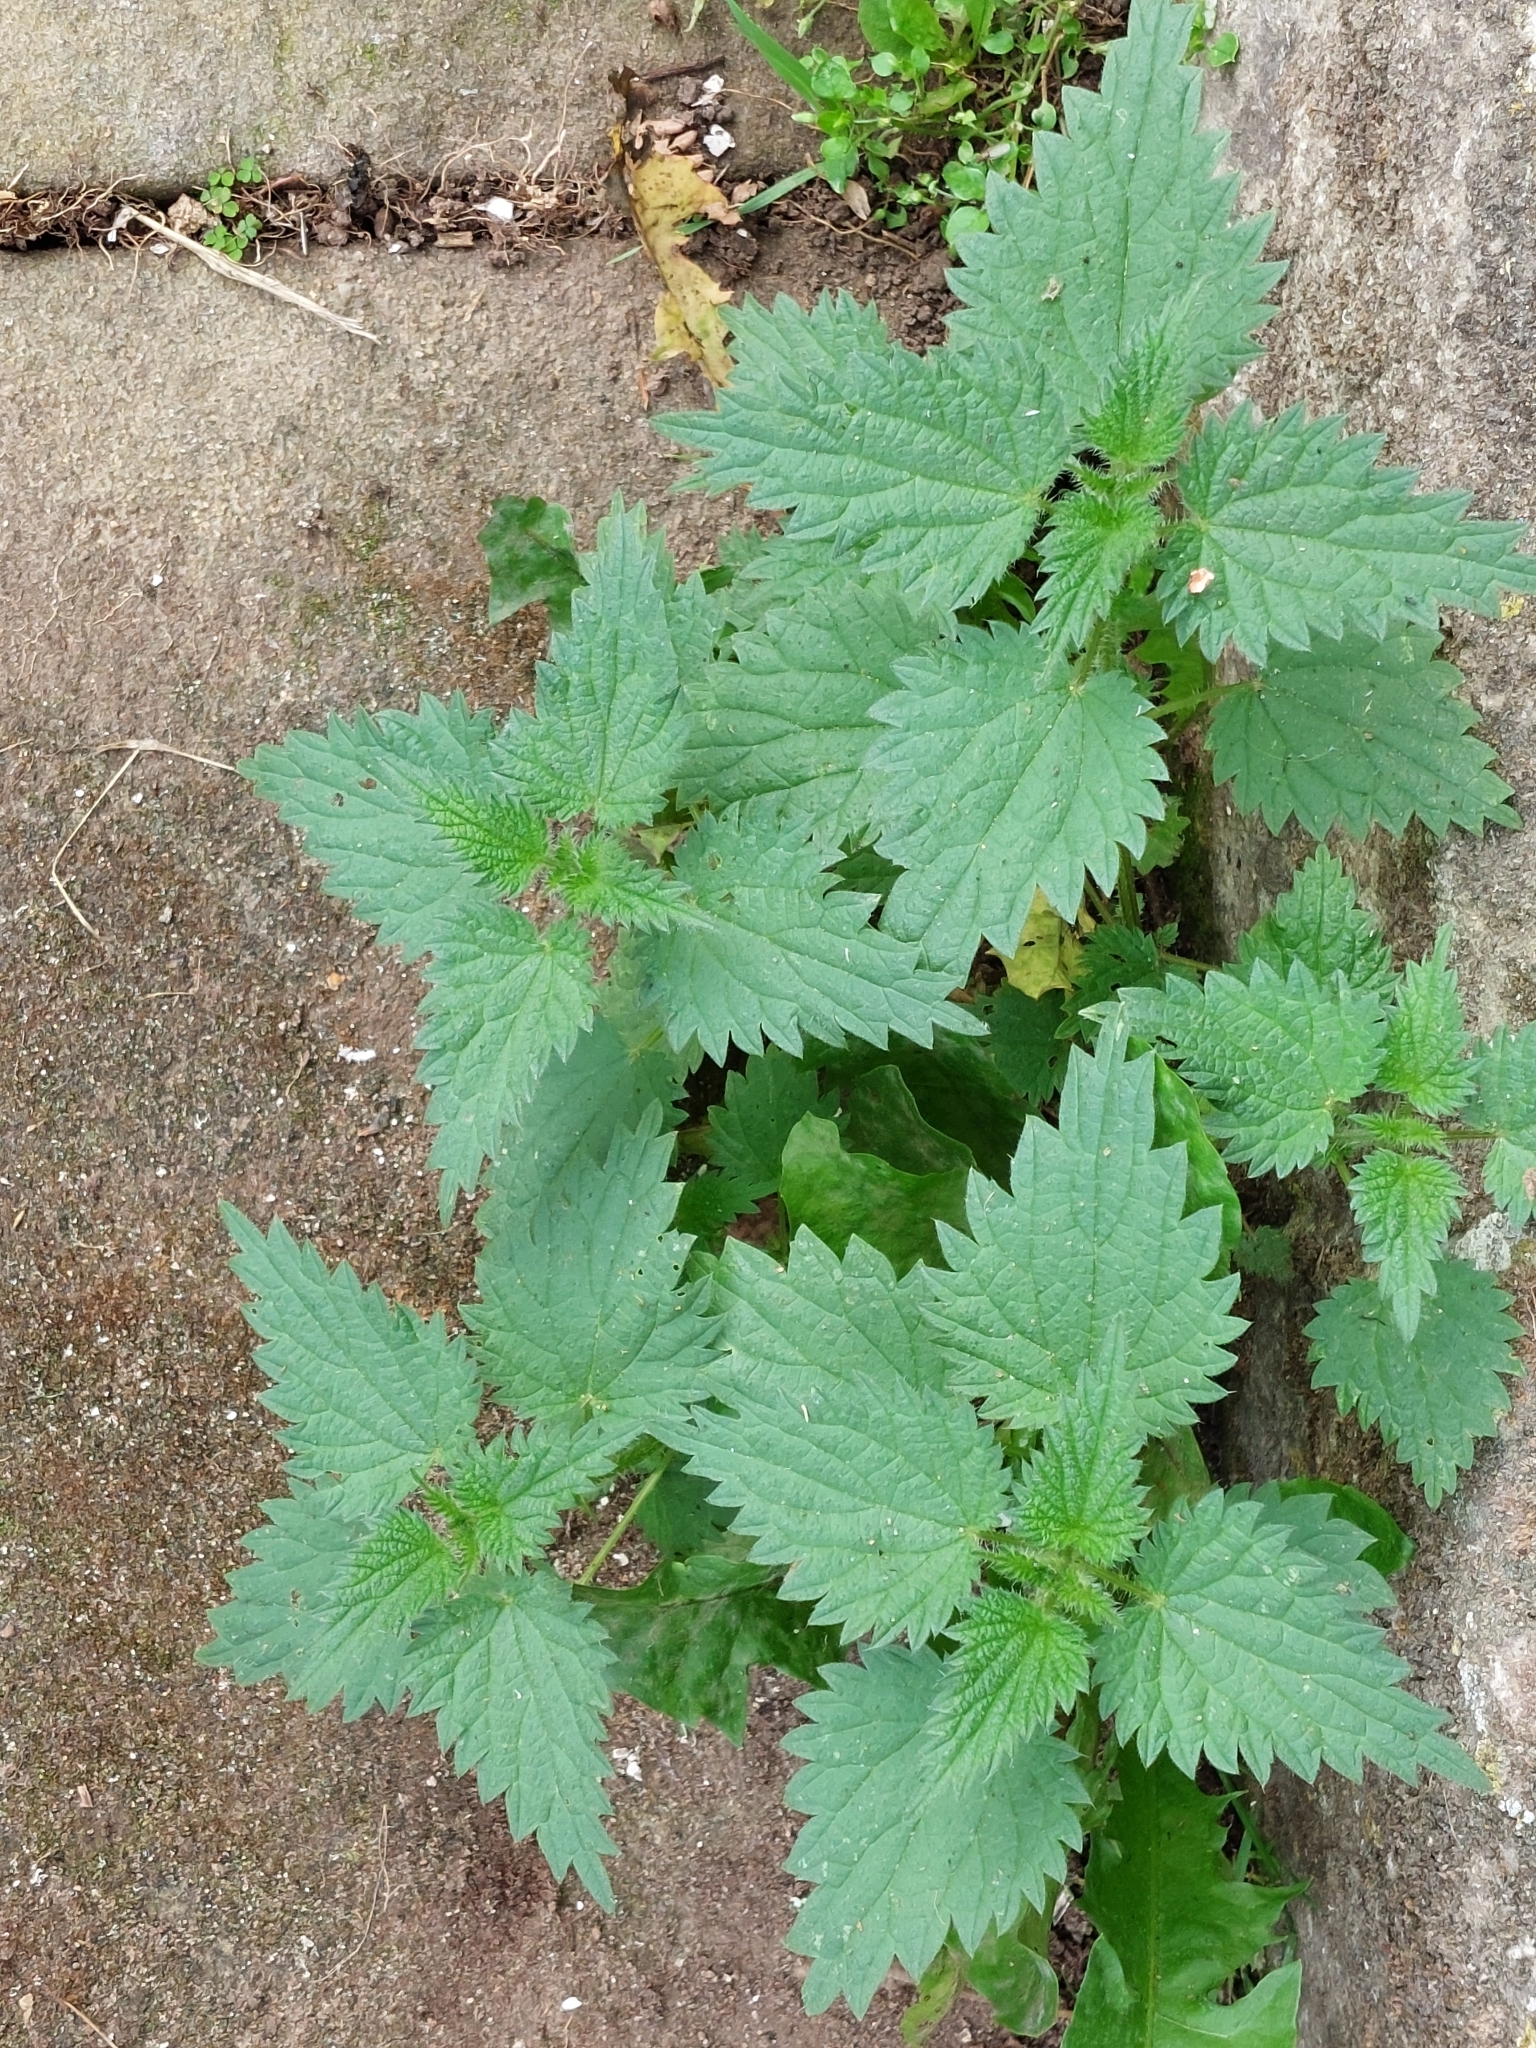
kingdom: Plantae
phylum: Tracheophyta
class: Magnoliopsida
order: Rosales
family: Urticaceae
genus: Urtica
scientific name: Urtica dioica
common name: Common nettle
